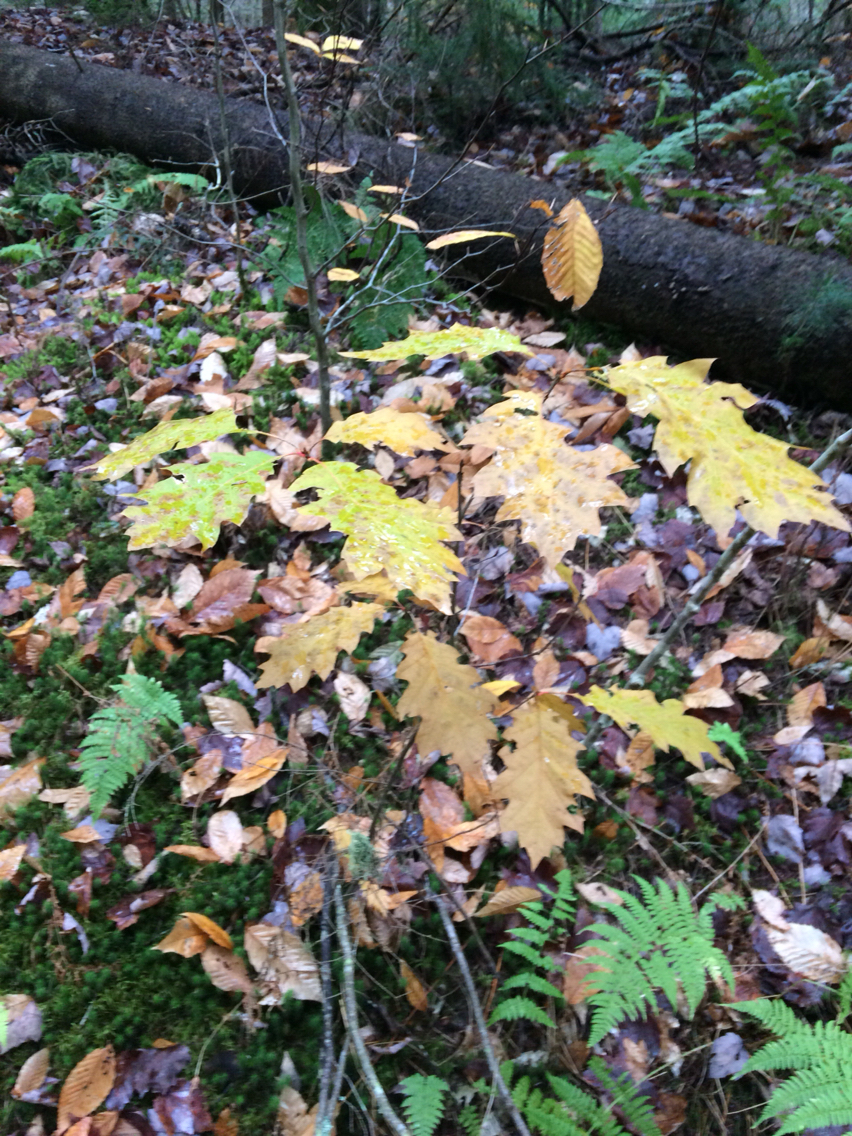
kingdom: Plantae
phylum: Tracheophyta
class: Magnoliopsida
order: Fagales
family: Fagaceae
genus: Quercus
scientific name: Quercus rubra
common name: Red oak
